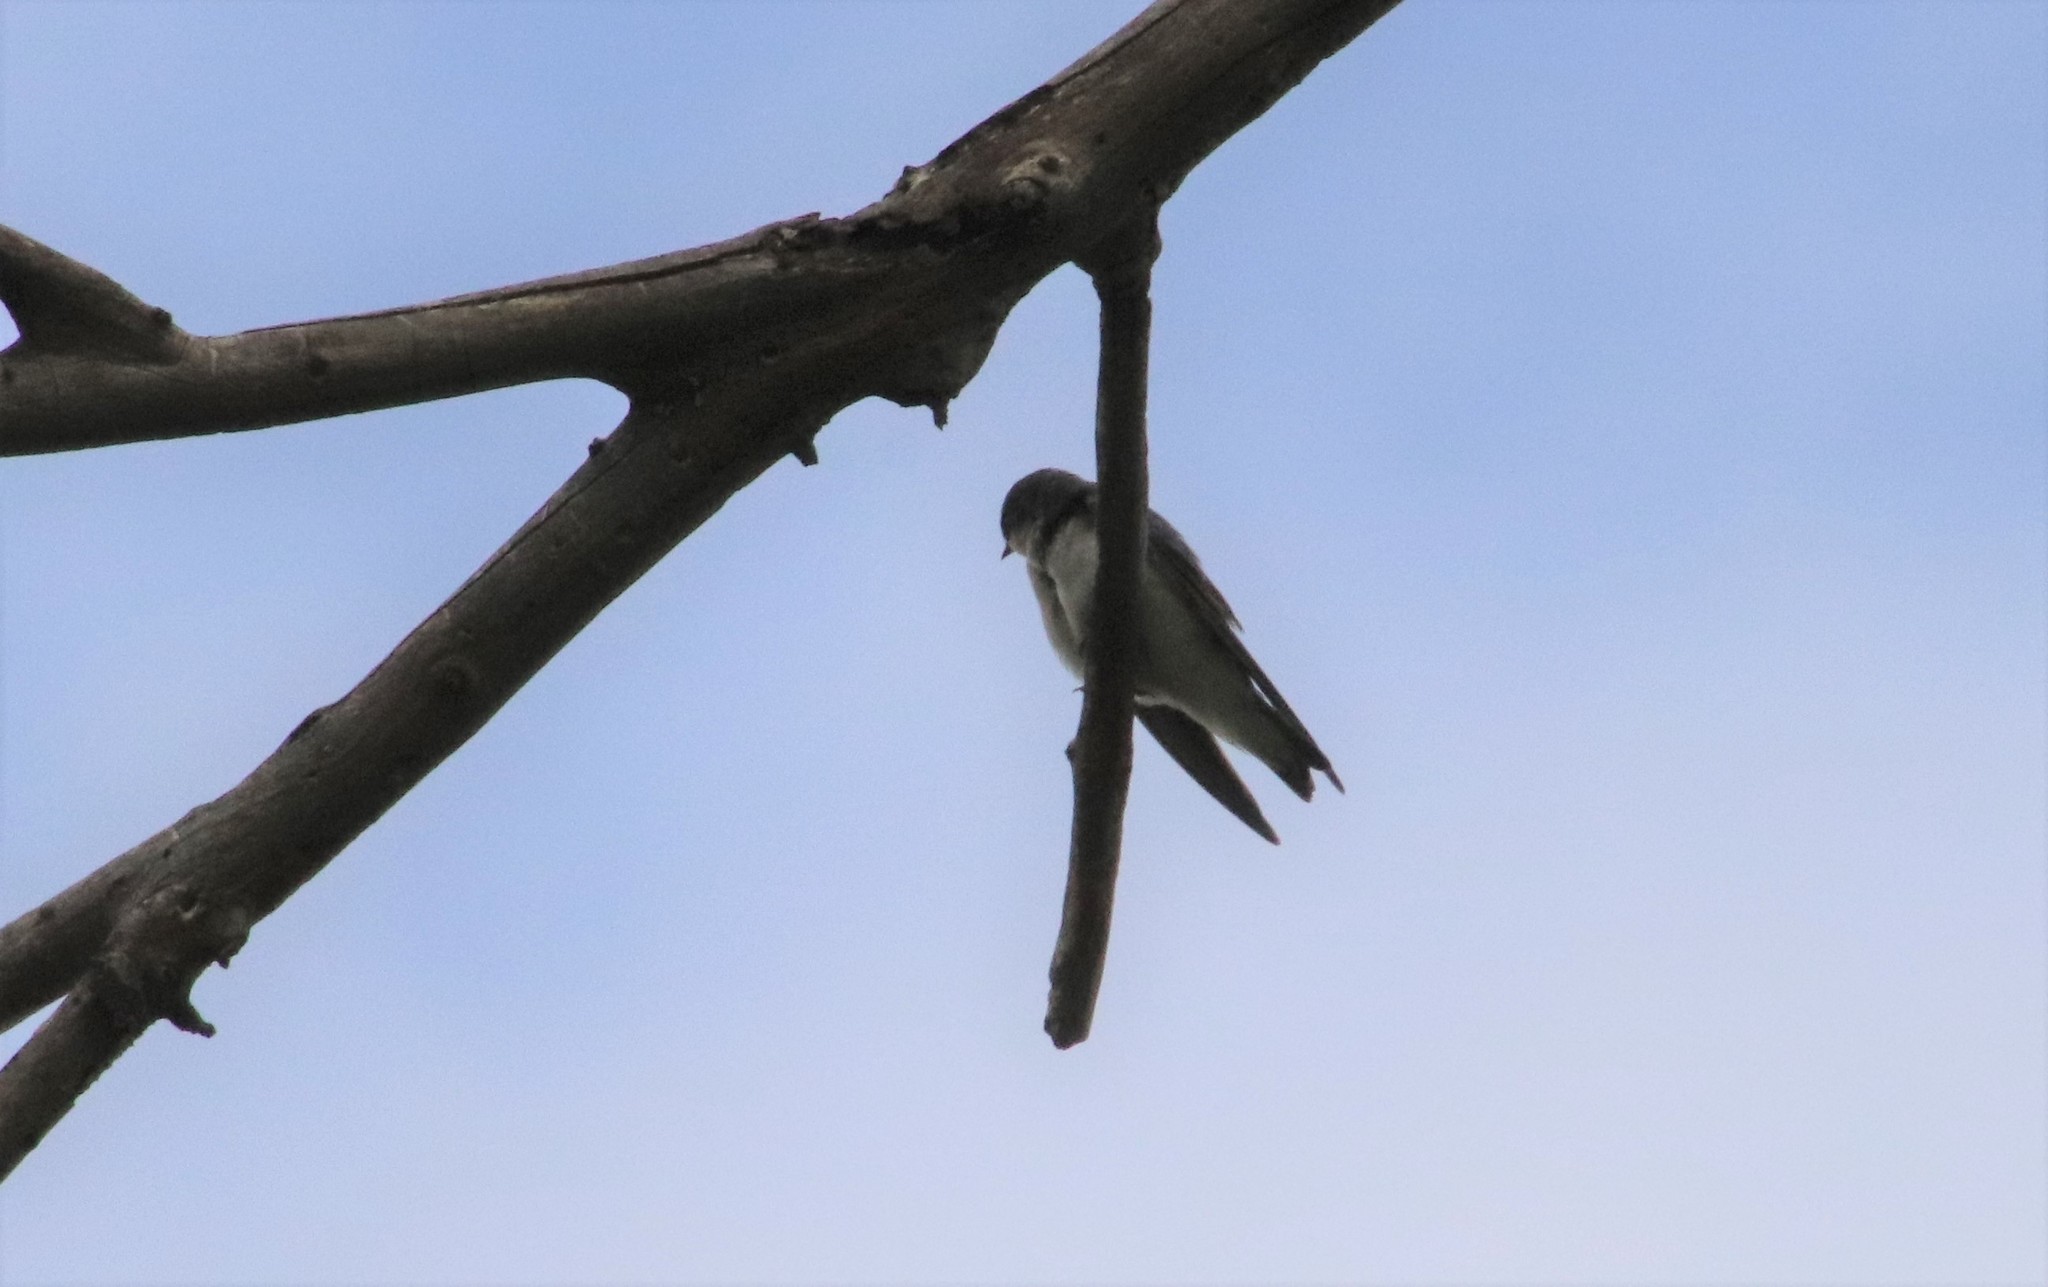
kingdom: Animalia
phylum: Chordata
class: Aves
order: Passeriformes
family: Hirundinidae
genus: Tachycineta
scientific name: Tachycineta bicolor
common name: Tree swallow
